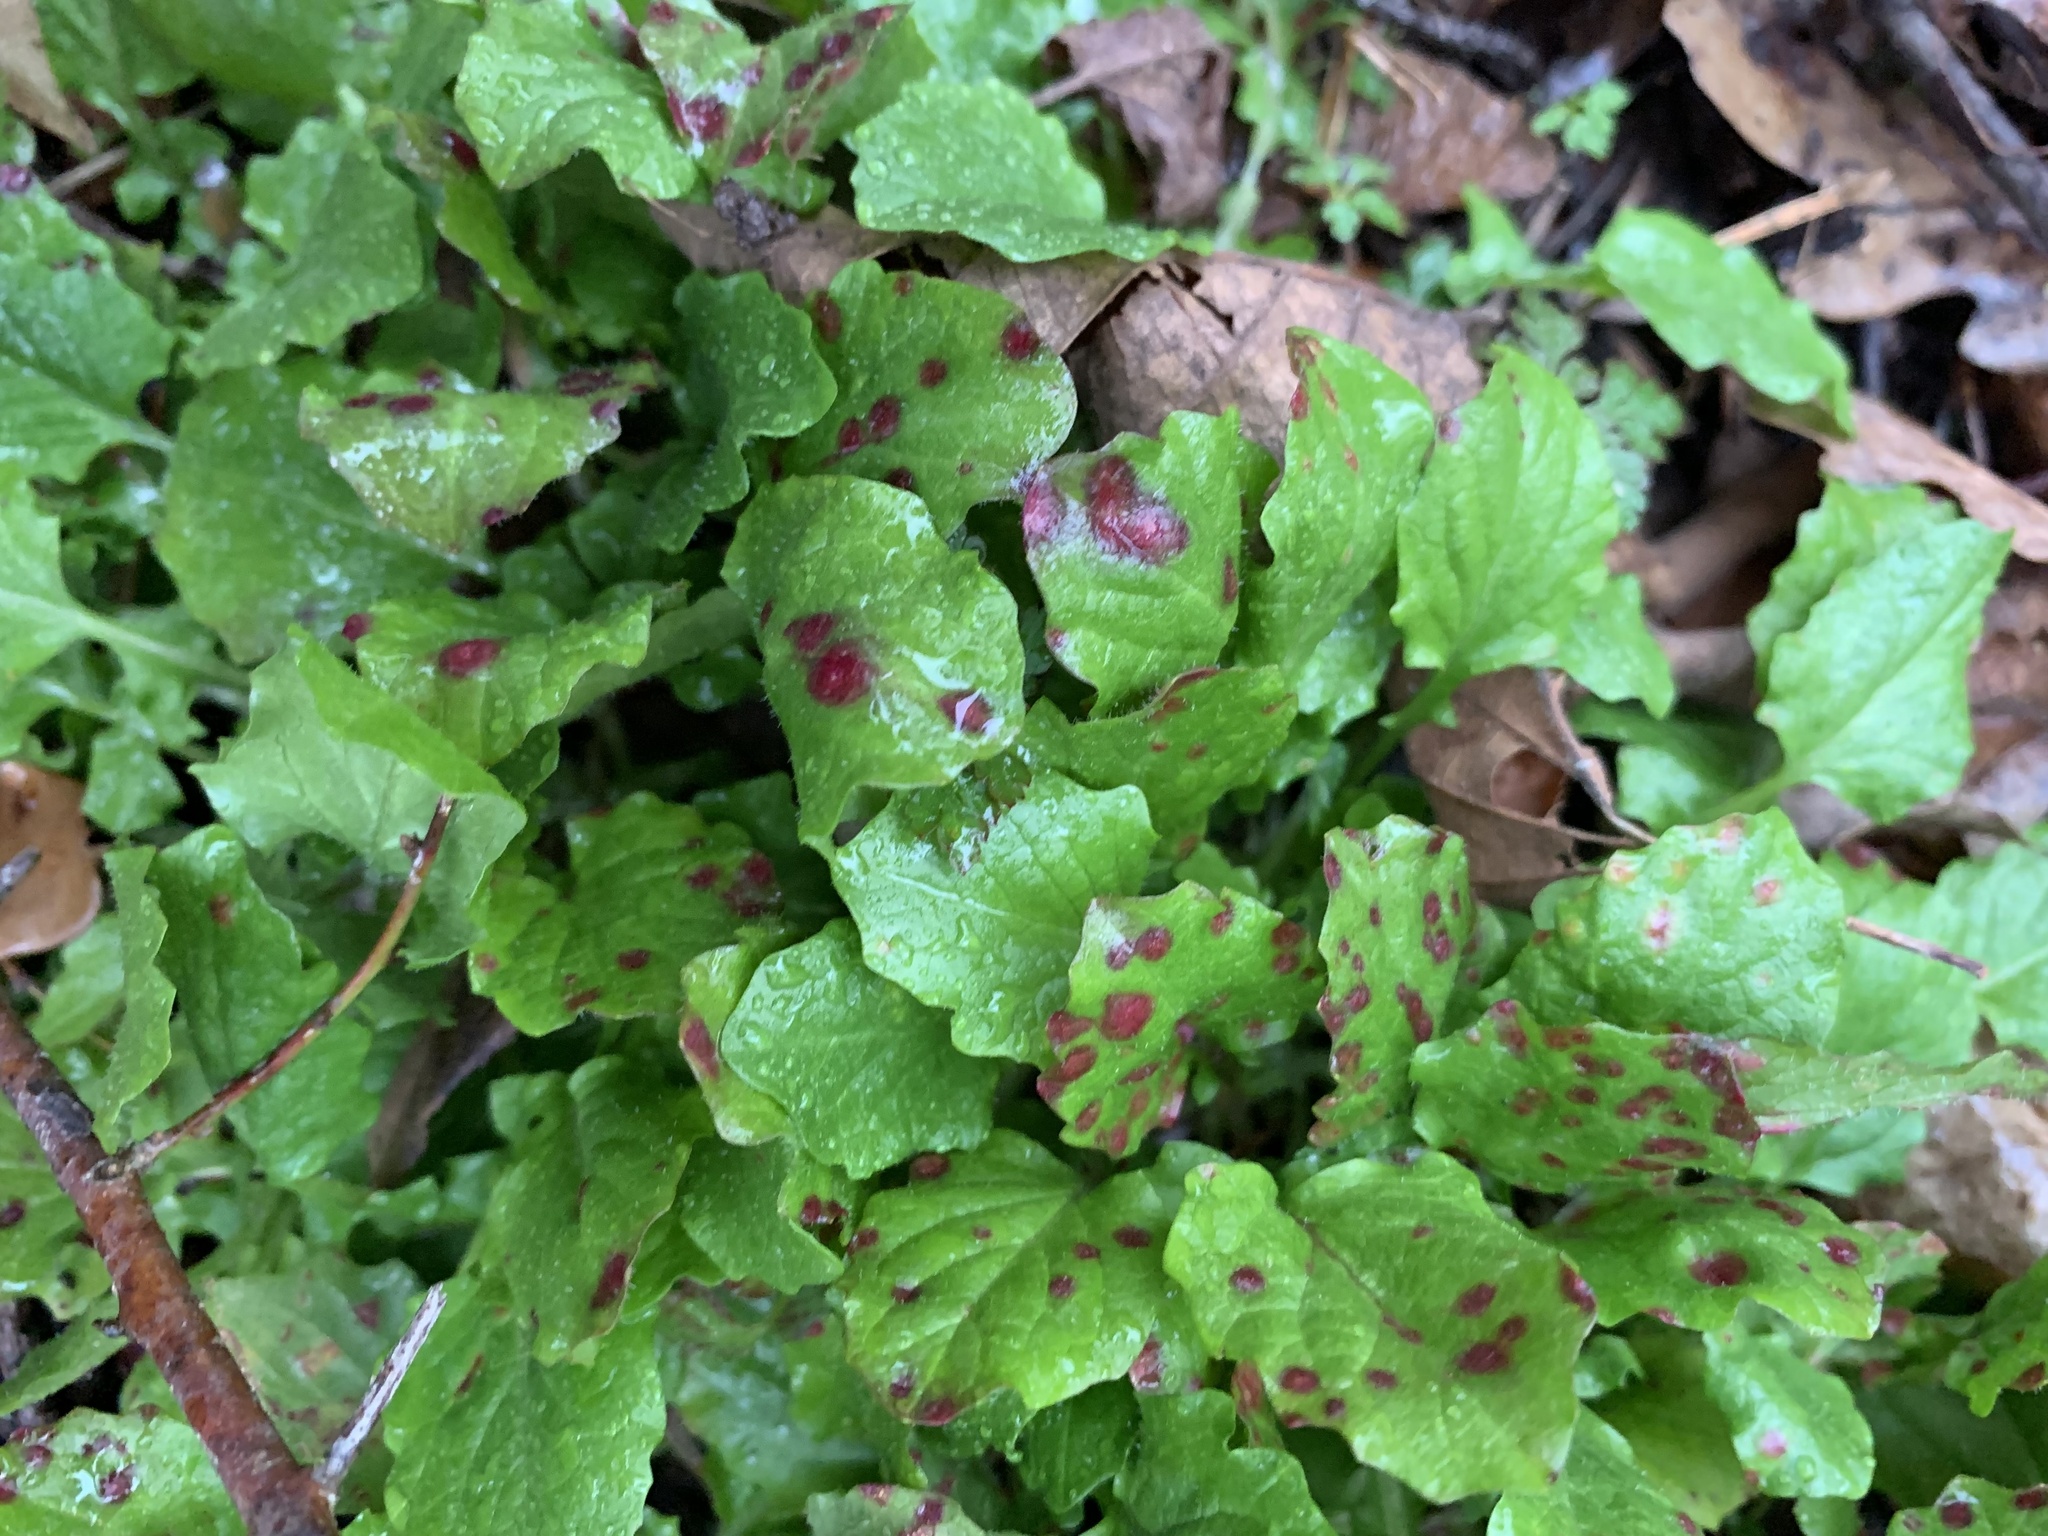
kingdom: Fungi
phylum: Basidiomycota
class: Pucciniomycetes
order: Pucciniales
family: Pucciniaceae
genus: Puccinia
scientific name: Puccinia lapsanae
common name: Nipplewort rust
